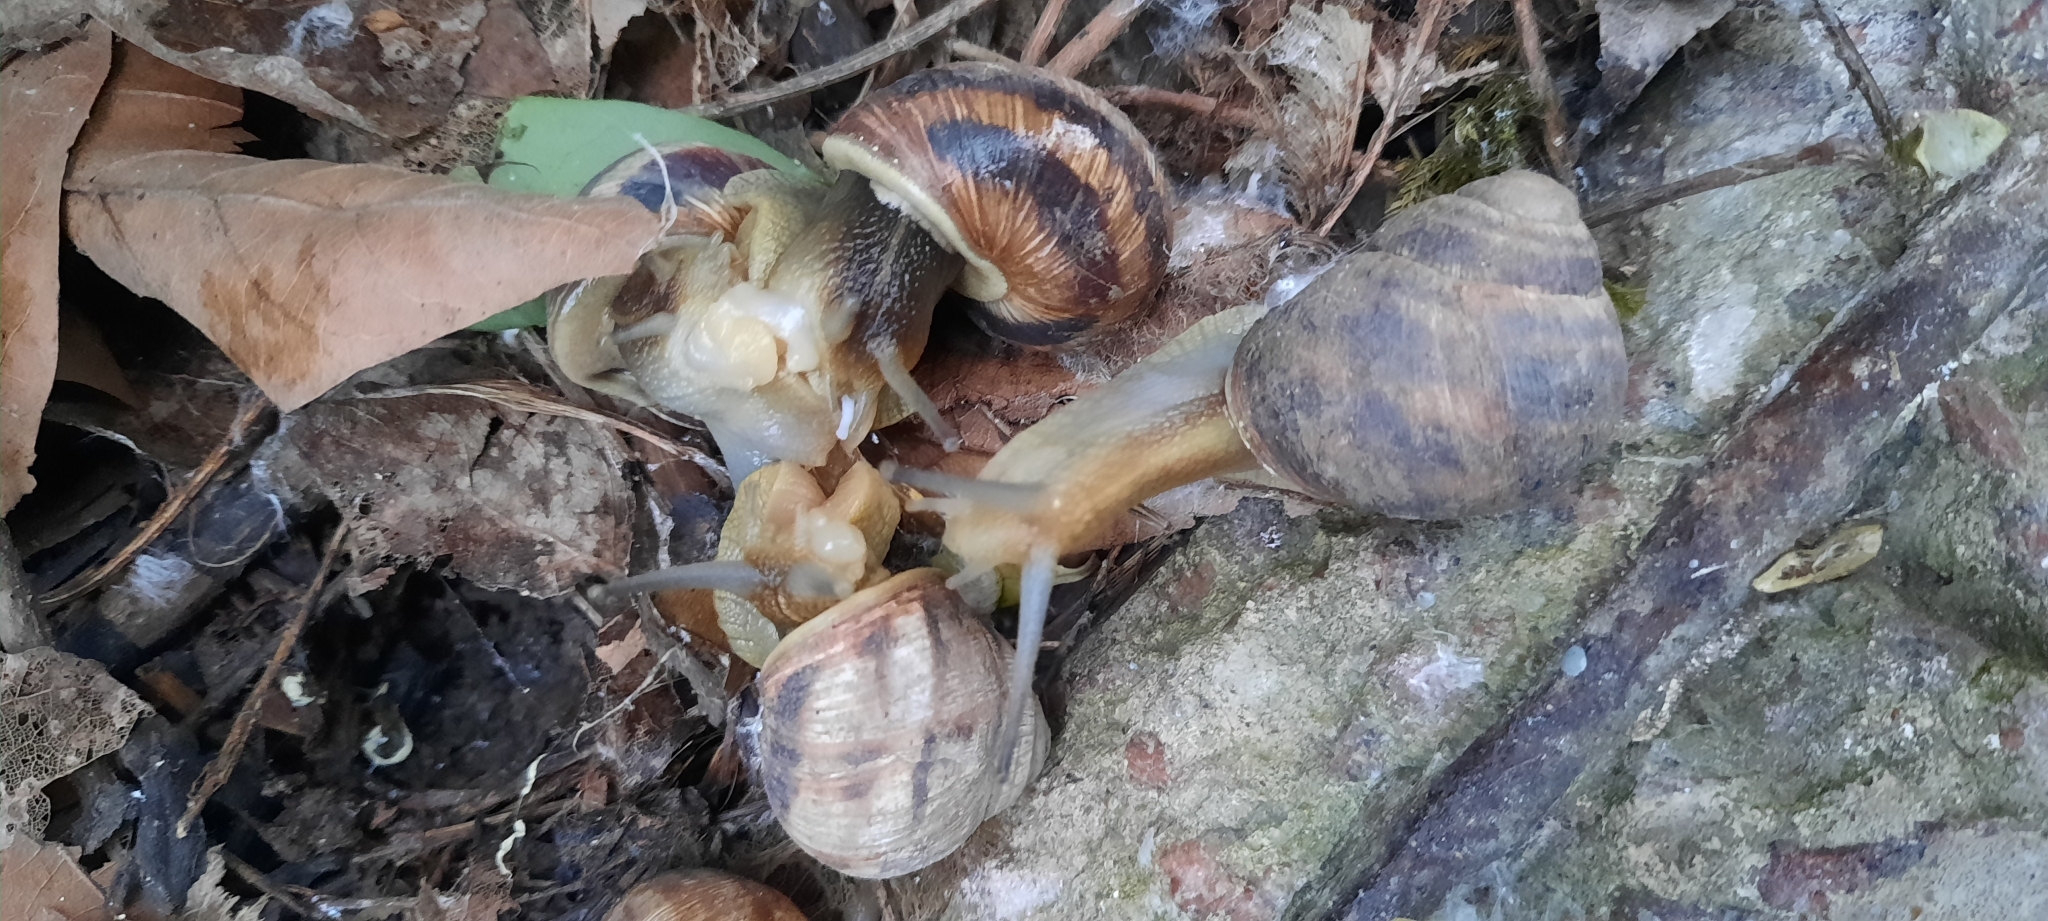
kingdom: Animalia
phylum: Mollusca
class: Gastropoda
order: Stylommatophora
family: Helicidae
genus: Helix
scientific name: Helix albescens
